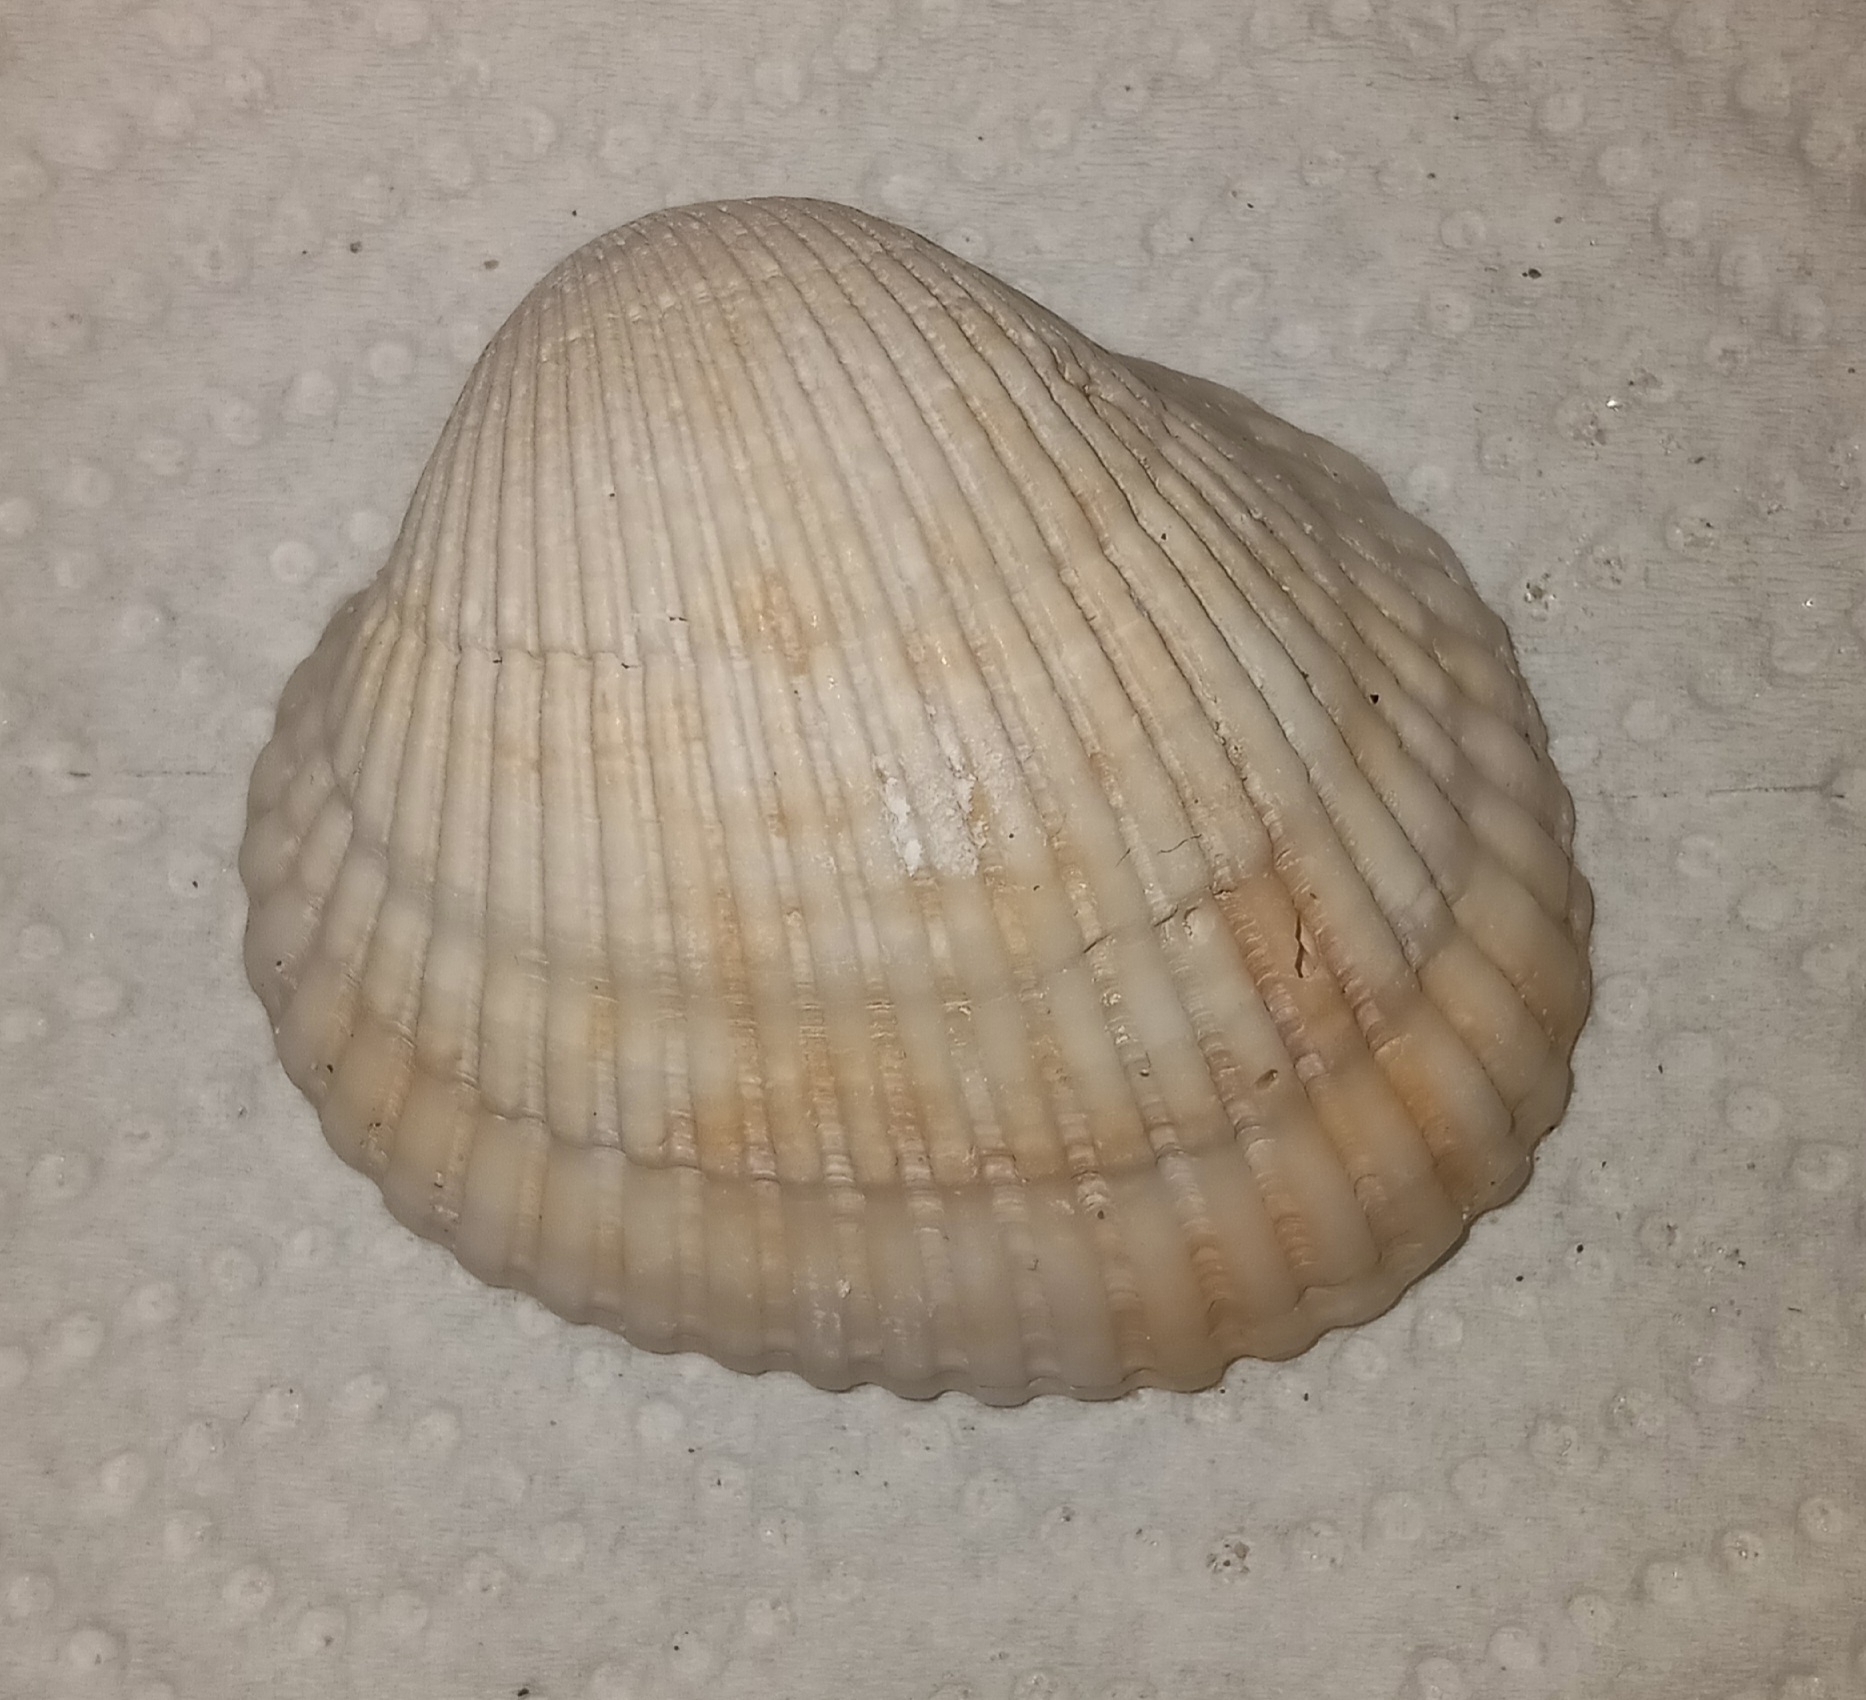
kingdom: Animalia
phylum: Mollusca
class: Bivalvia
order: Arcida
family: Arcidae
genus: Lunarca
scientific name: Lunarca ovalis
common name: Blood ark
